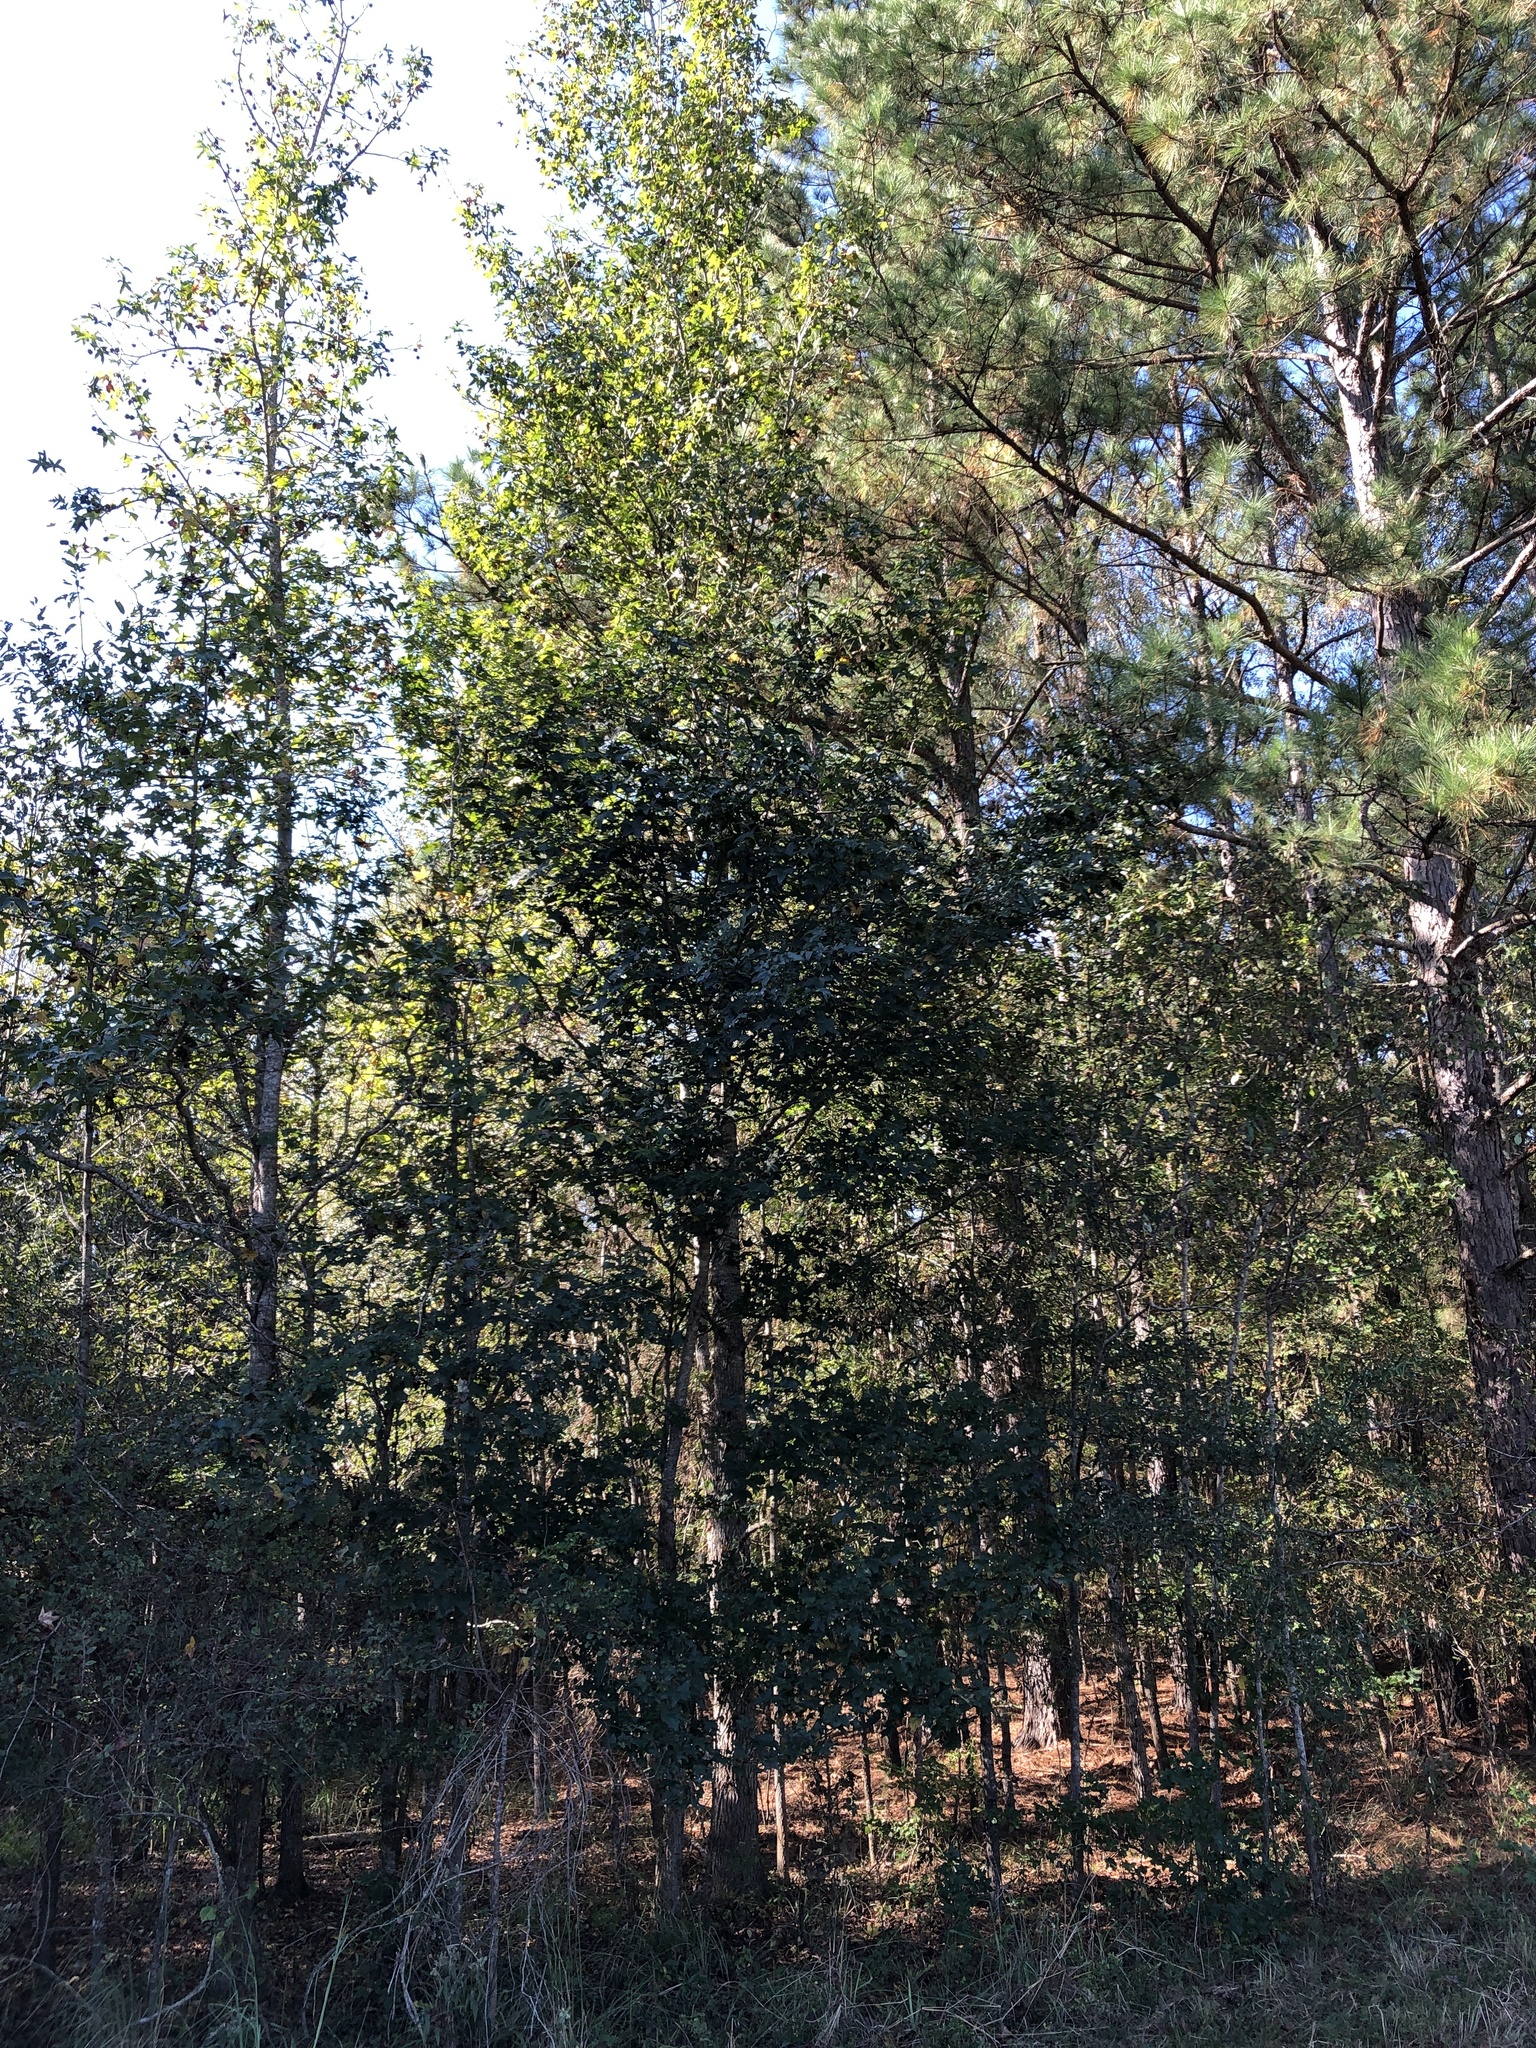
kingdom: Plantae
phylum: Tracheophyta
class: Magnoliopsida
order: Saxifragales
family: Altingiaceae
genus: Liquidambar
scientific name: Liquidambar styraciflua
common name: Sweet gum
